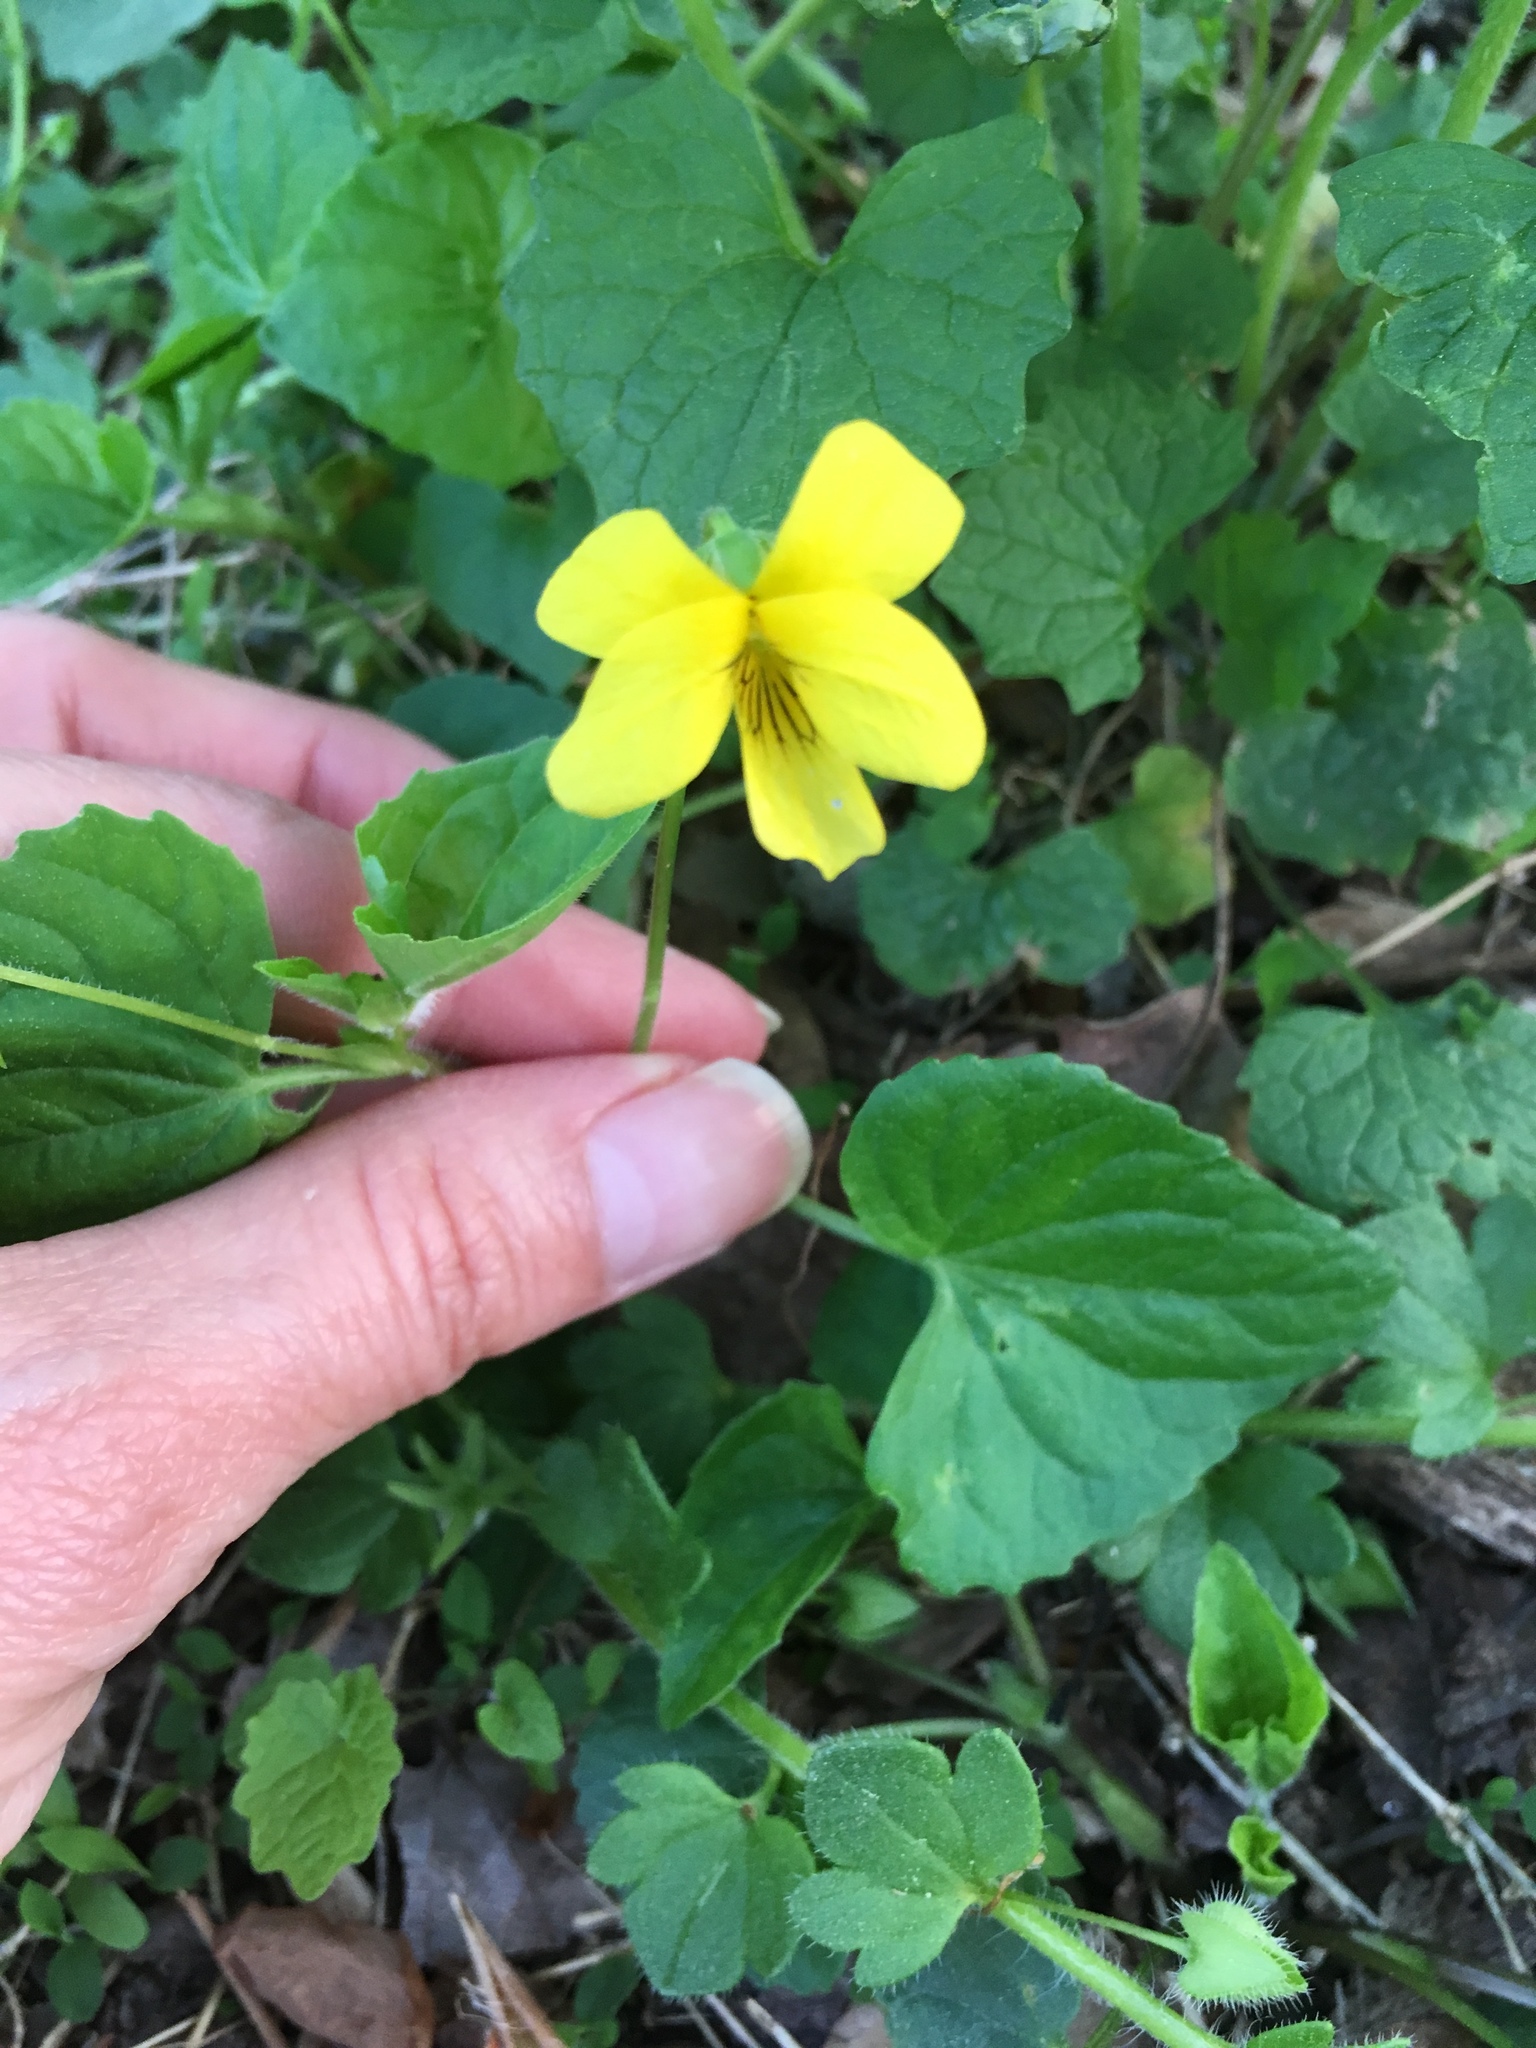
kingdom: Plantae
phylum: Tracheophyta
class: Magnoliopsida
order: Malpighiales
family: Violaceae
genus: Viola
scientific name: Viola eriocarpa
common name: Smooth yellow violet
